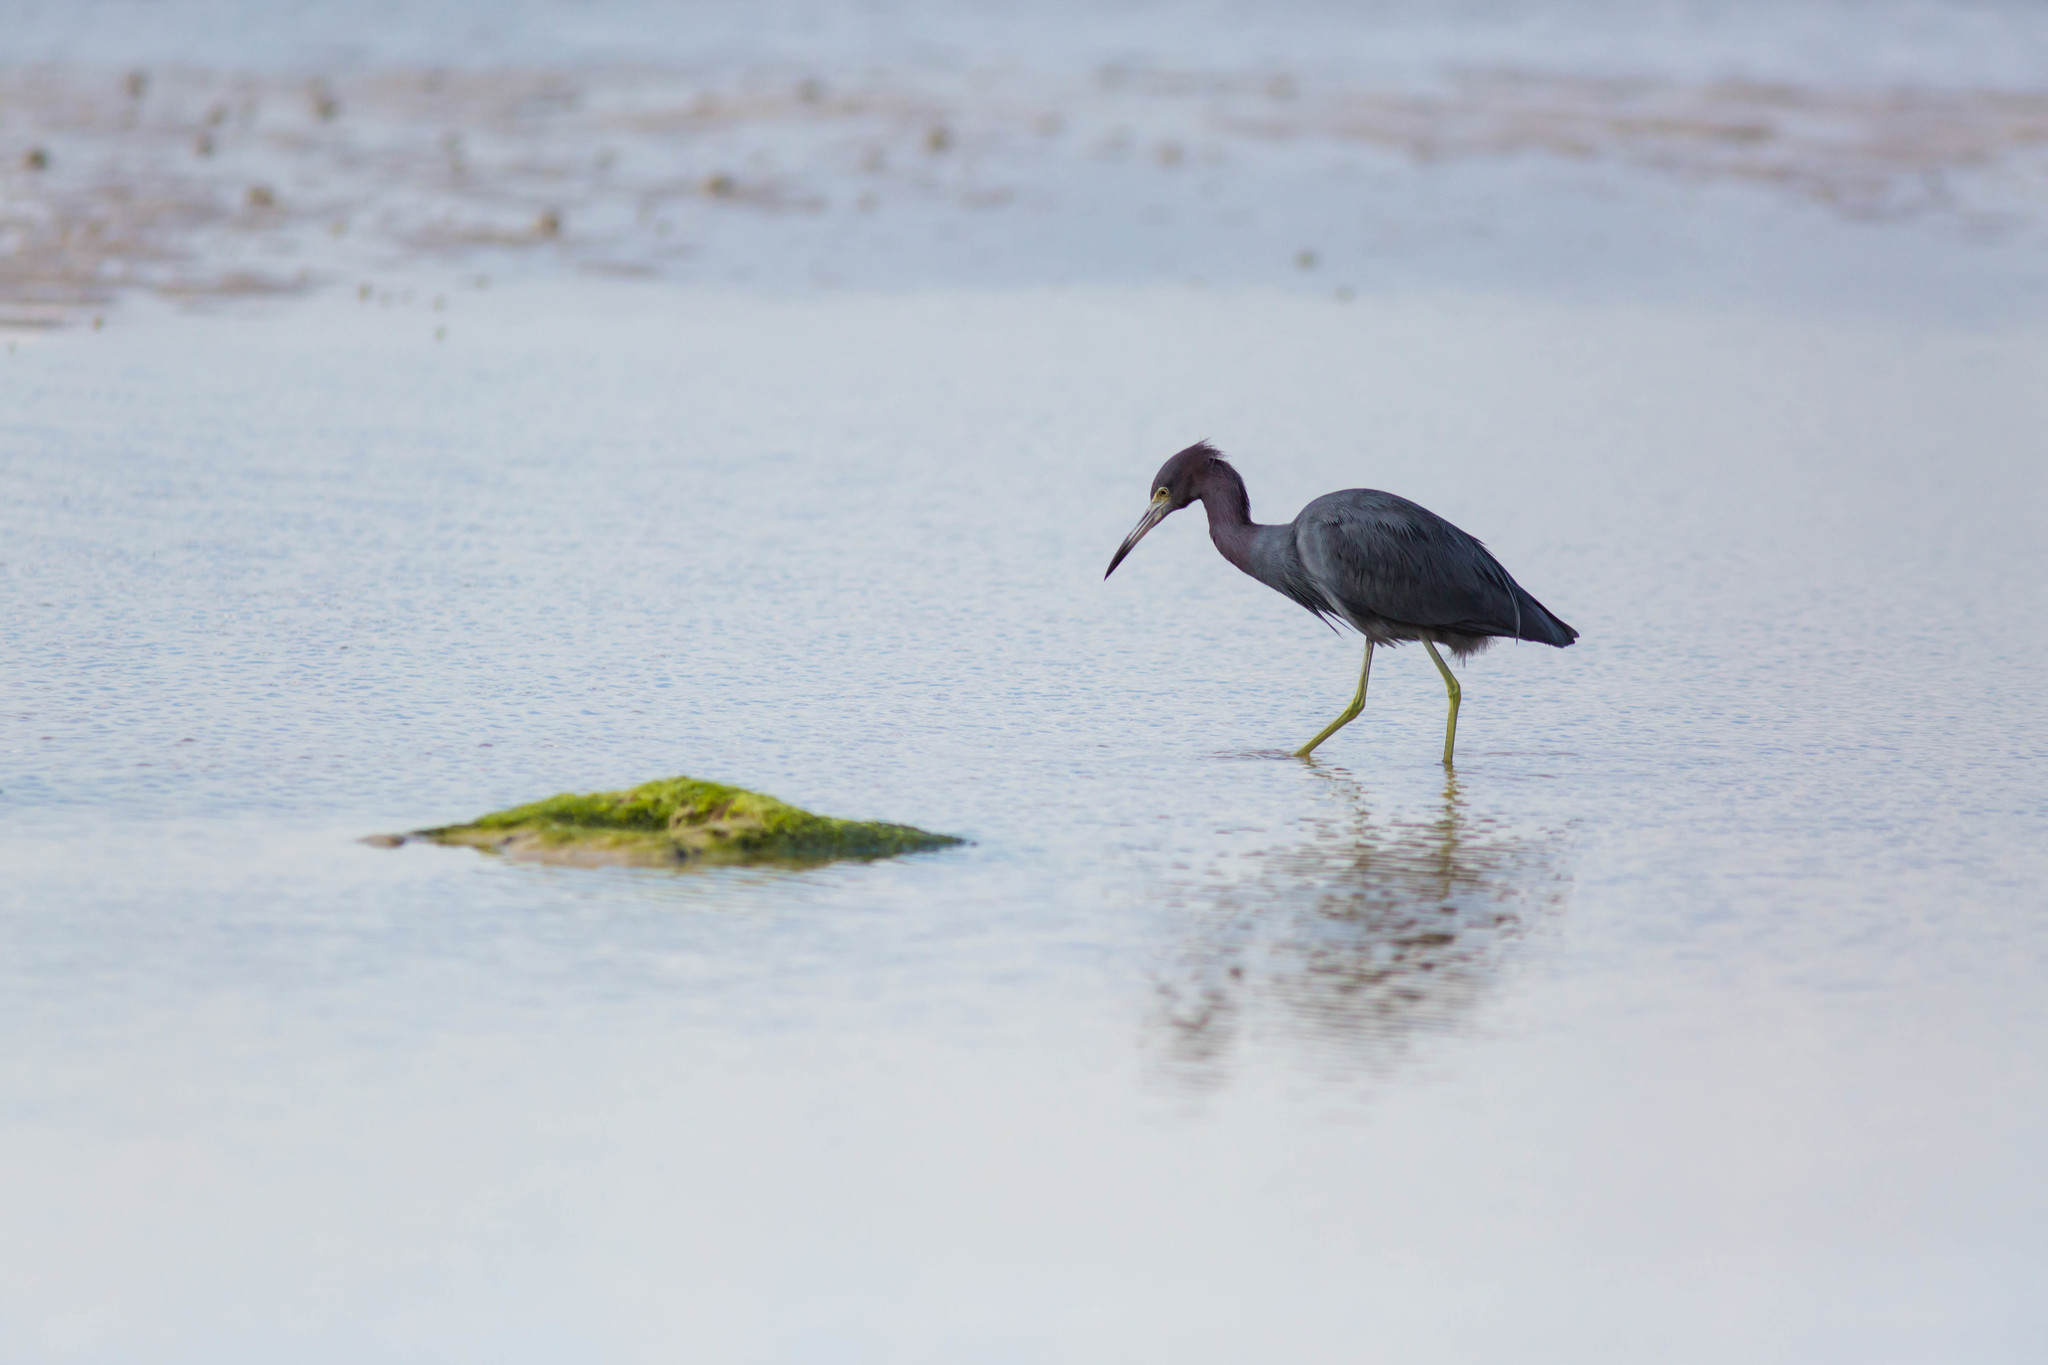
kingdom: Animalia
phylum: Chordata
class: Aves
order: Pelecaniformes
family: Ardeidae
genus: Egretta
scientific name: Egretta caerulea
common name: Little blue heron
